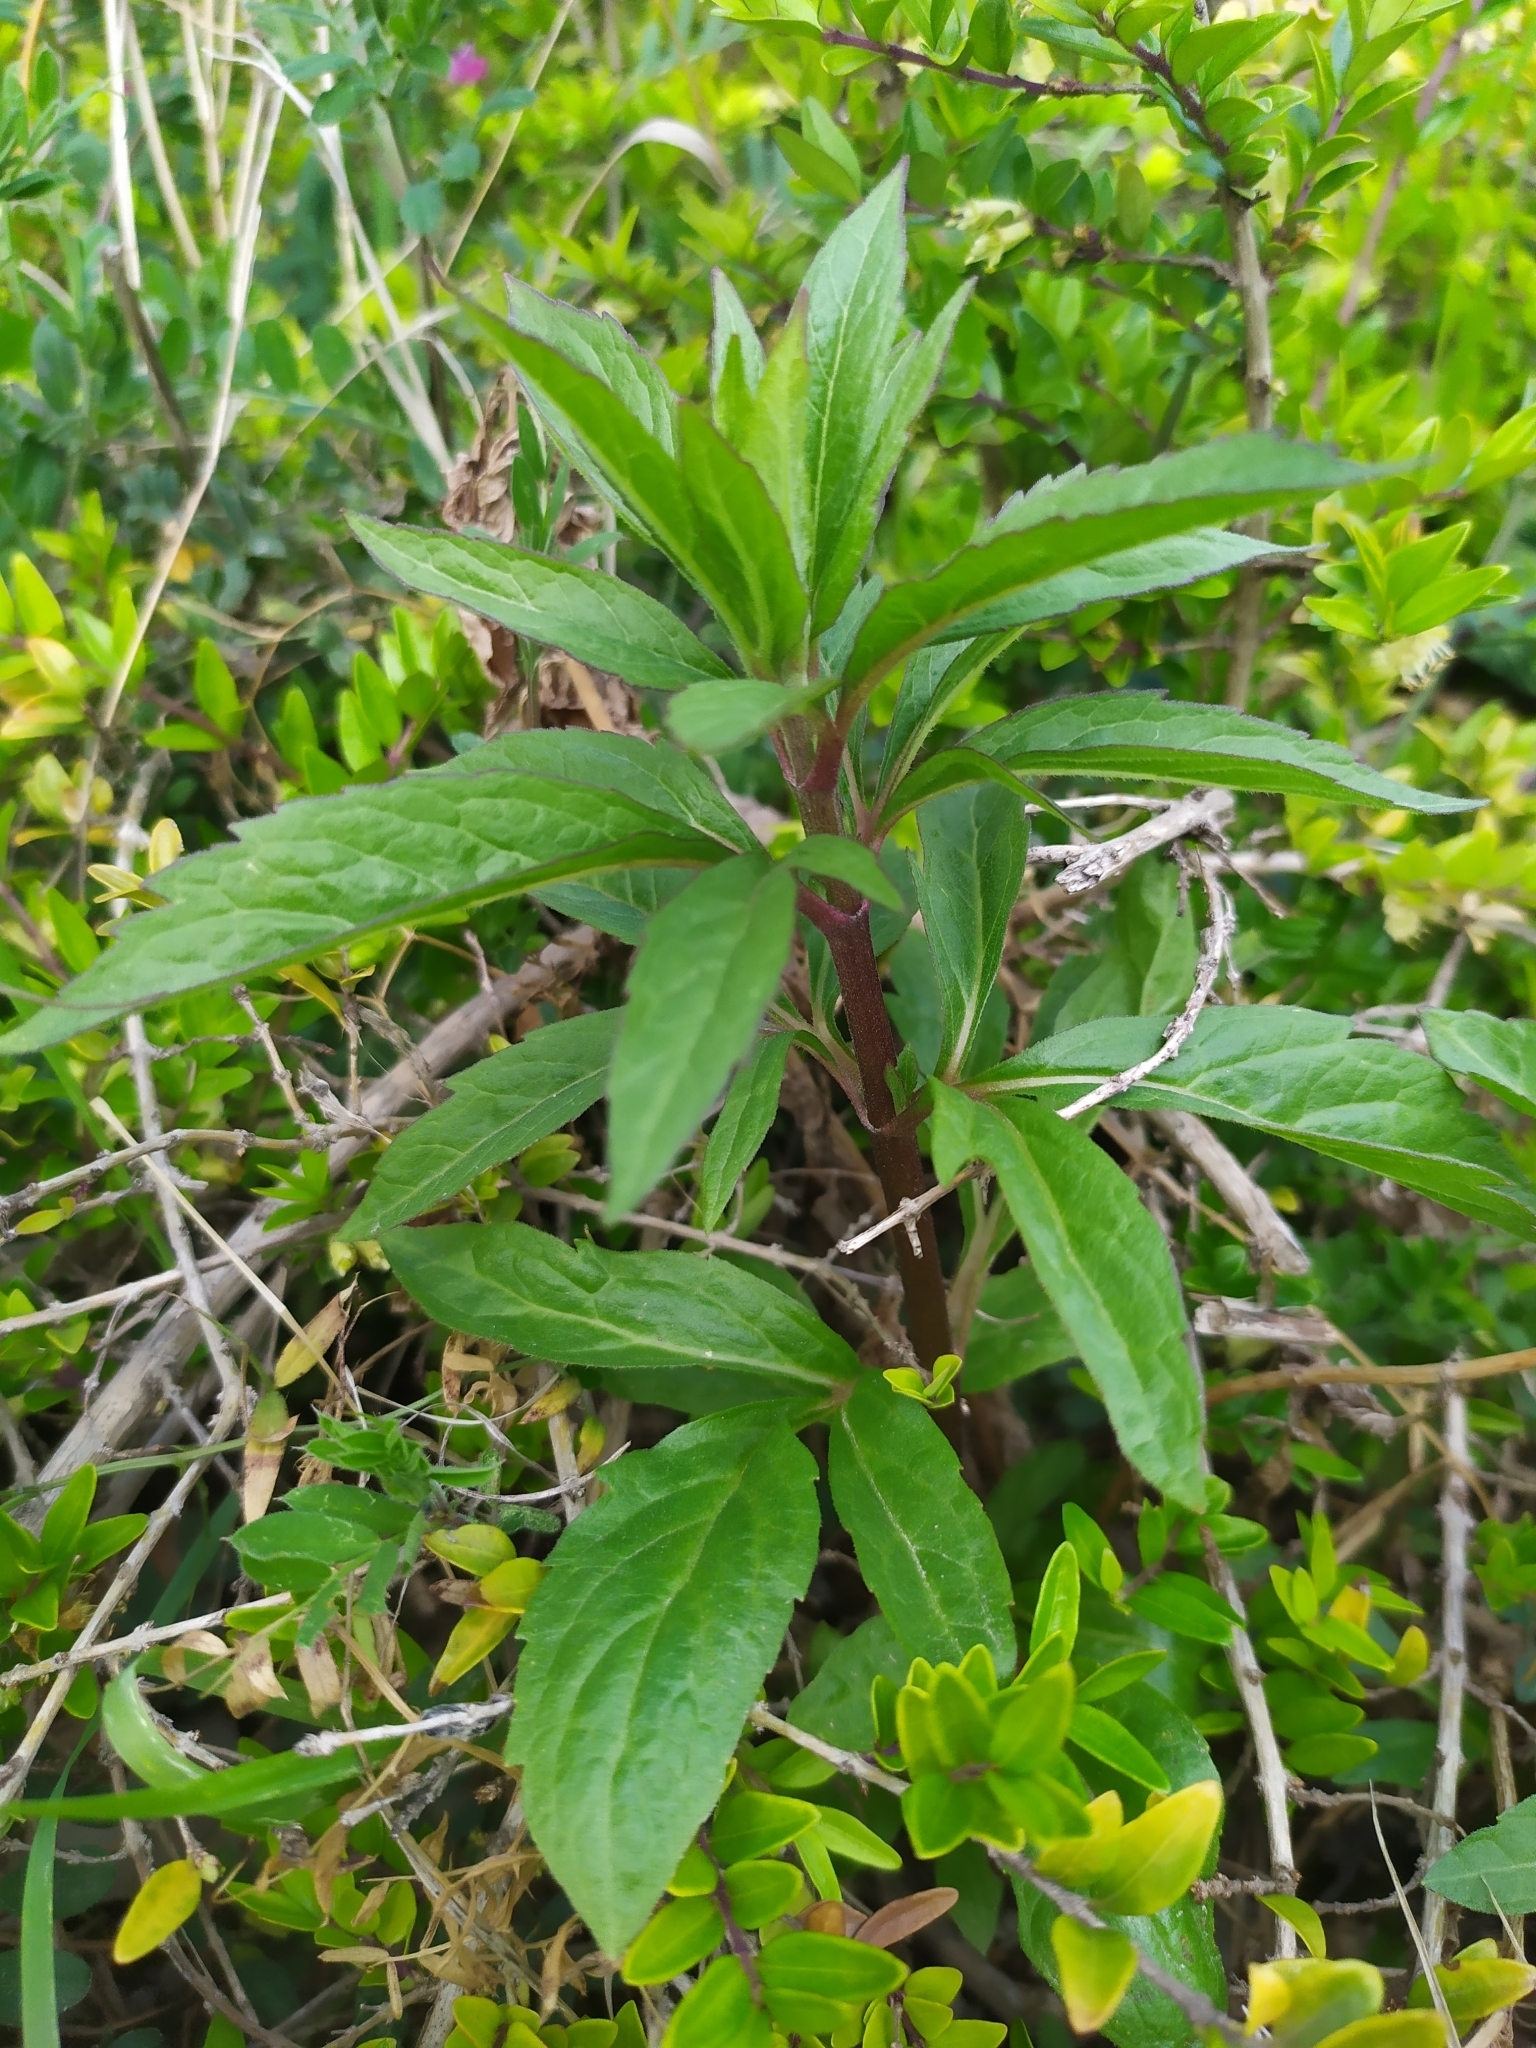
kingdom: Plantae
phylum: Tracheophyta
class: Magnoliopsida
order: Asterales
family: Asteraceae
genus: Eupatorium
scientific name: Eupatorium cannabinum
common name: Hemp-agrimony
